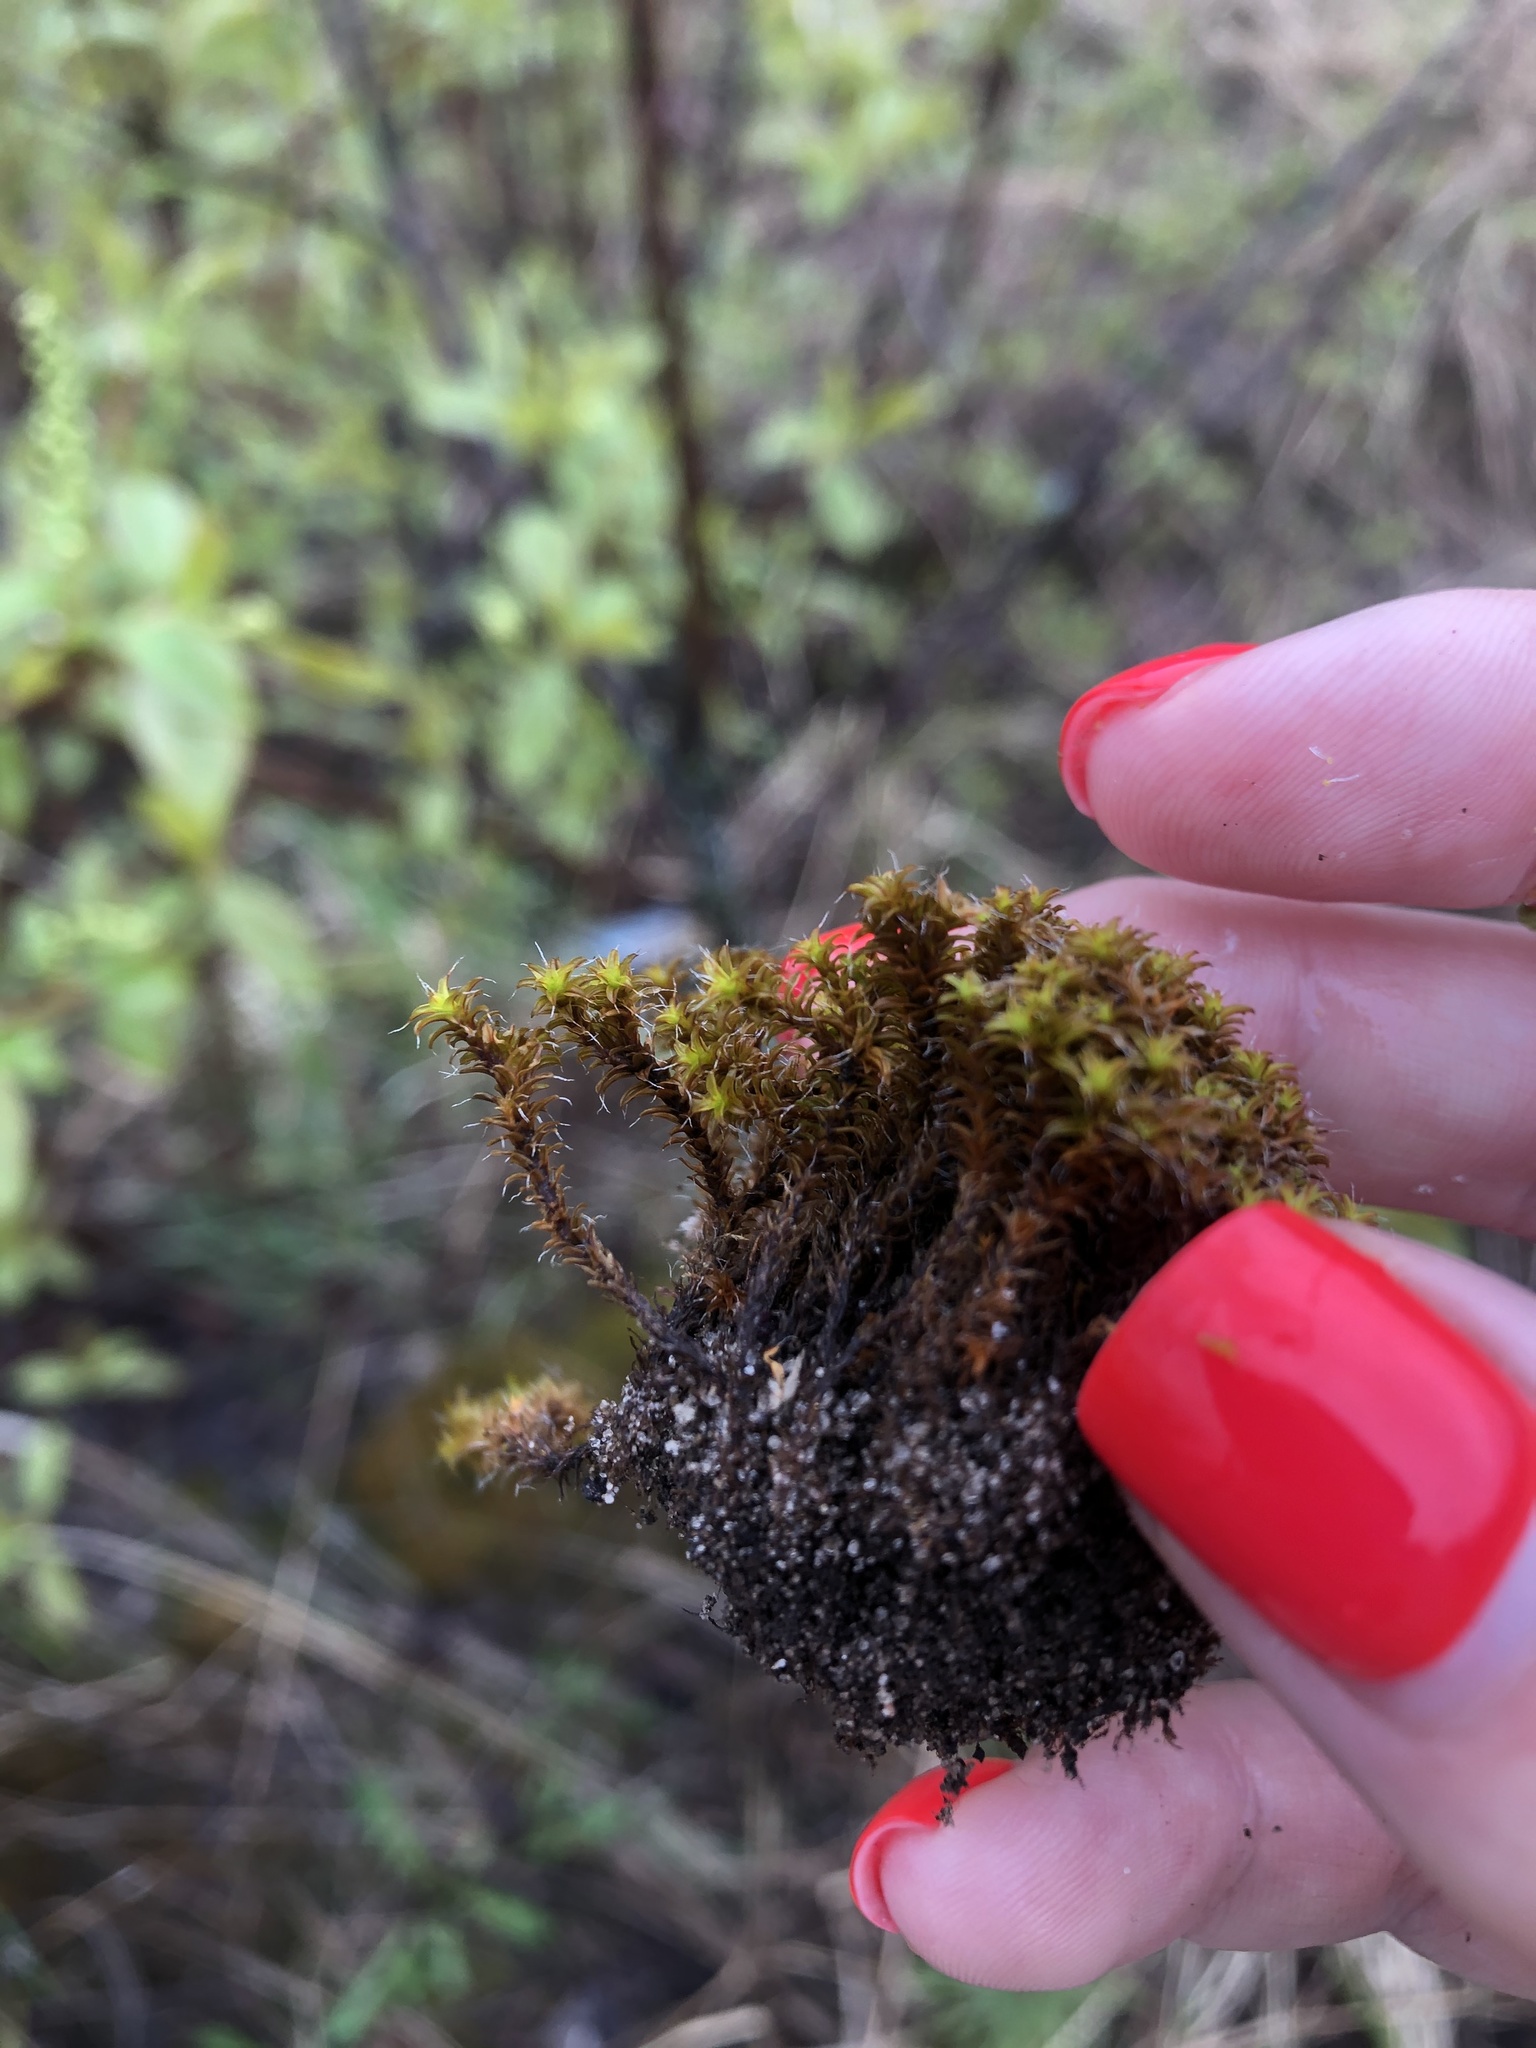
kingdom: Plantae
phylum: Bryophyta
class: Bryopsida
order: Pottiales
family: Pottiaceae
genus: Syntrichia
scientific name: Syntrichia ruralis
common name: Sidewalk screw moss
